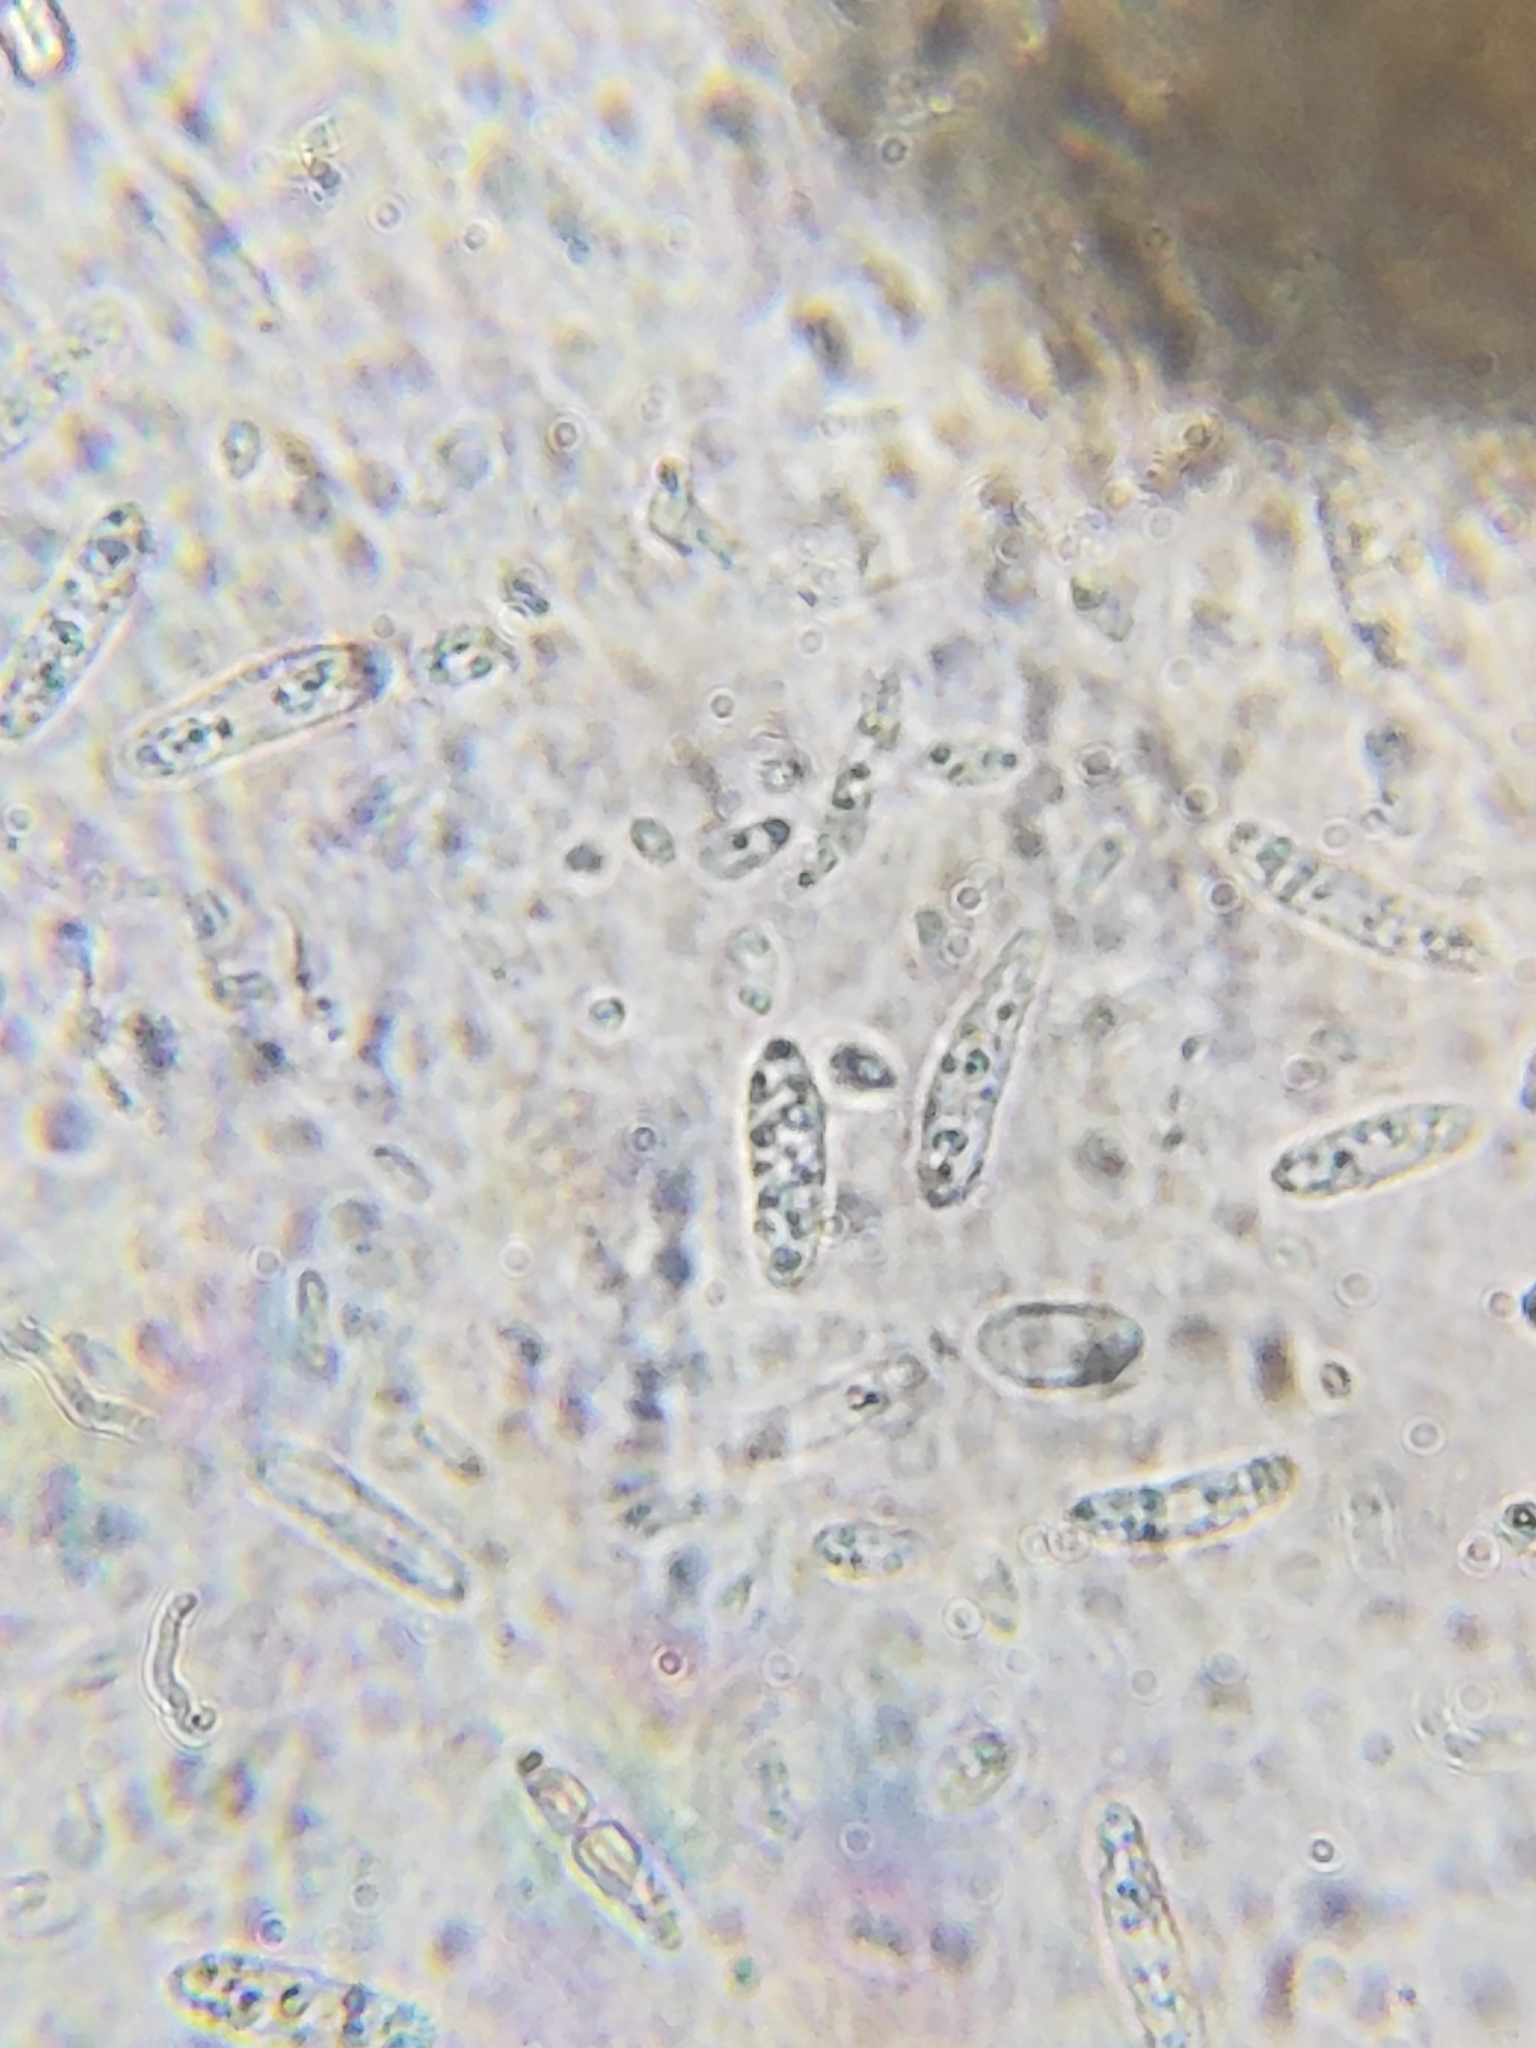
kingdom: Fungi
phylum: Ascomycota
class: Leotiomycetes
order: Helotiales
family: Cenangiaceae
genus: Chlorencoelia
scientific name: Chlorencoelia versiformis
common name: Flea's ear
